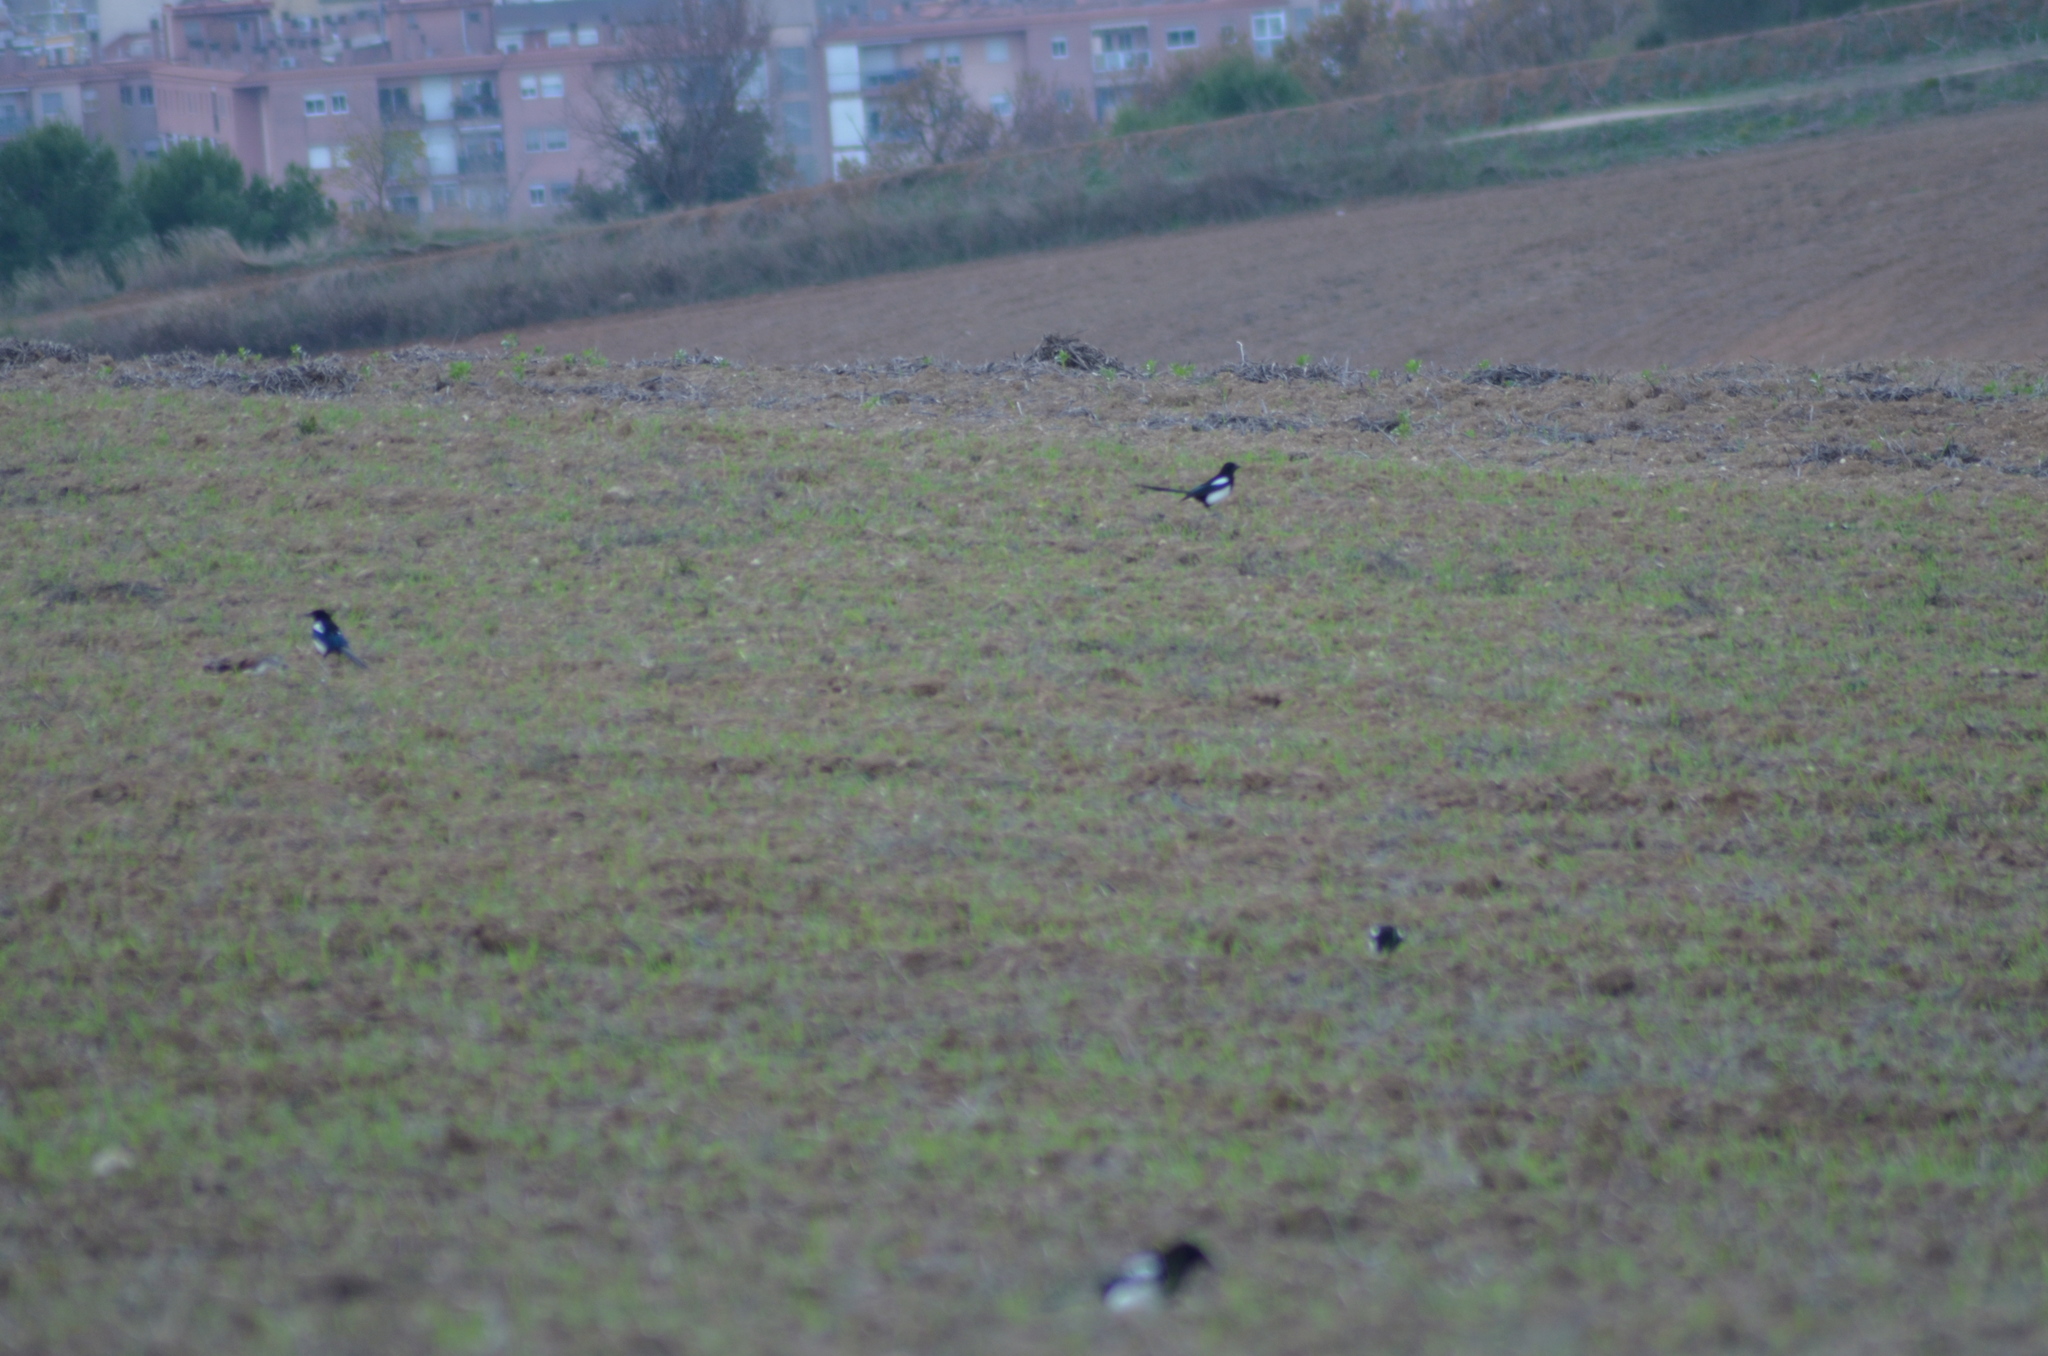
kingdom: Animalia
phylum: Chordata
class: Aves
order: Passeriformes
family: Corvidae
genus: Pica
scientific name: Pica pica
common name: Eurasian magpie
